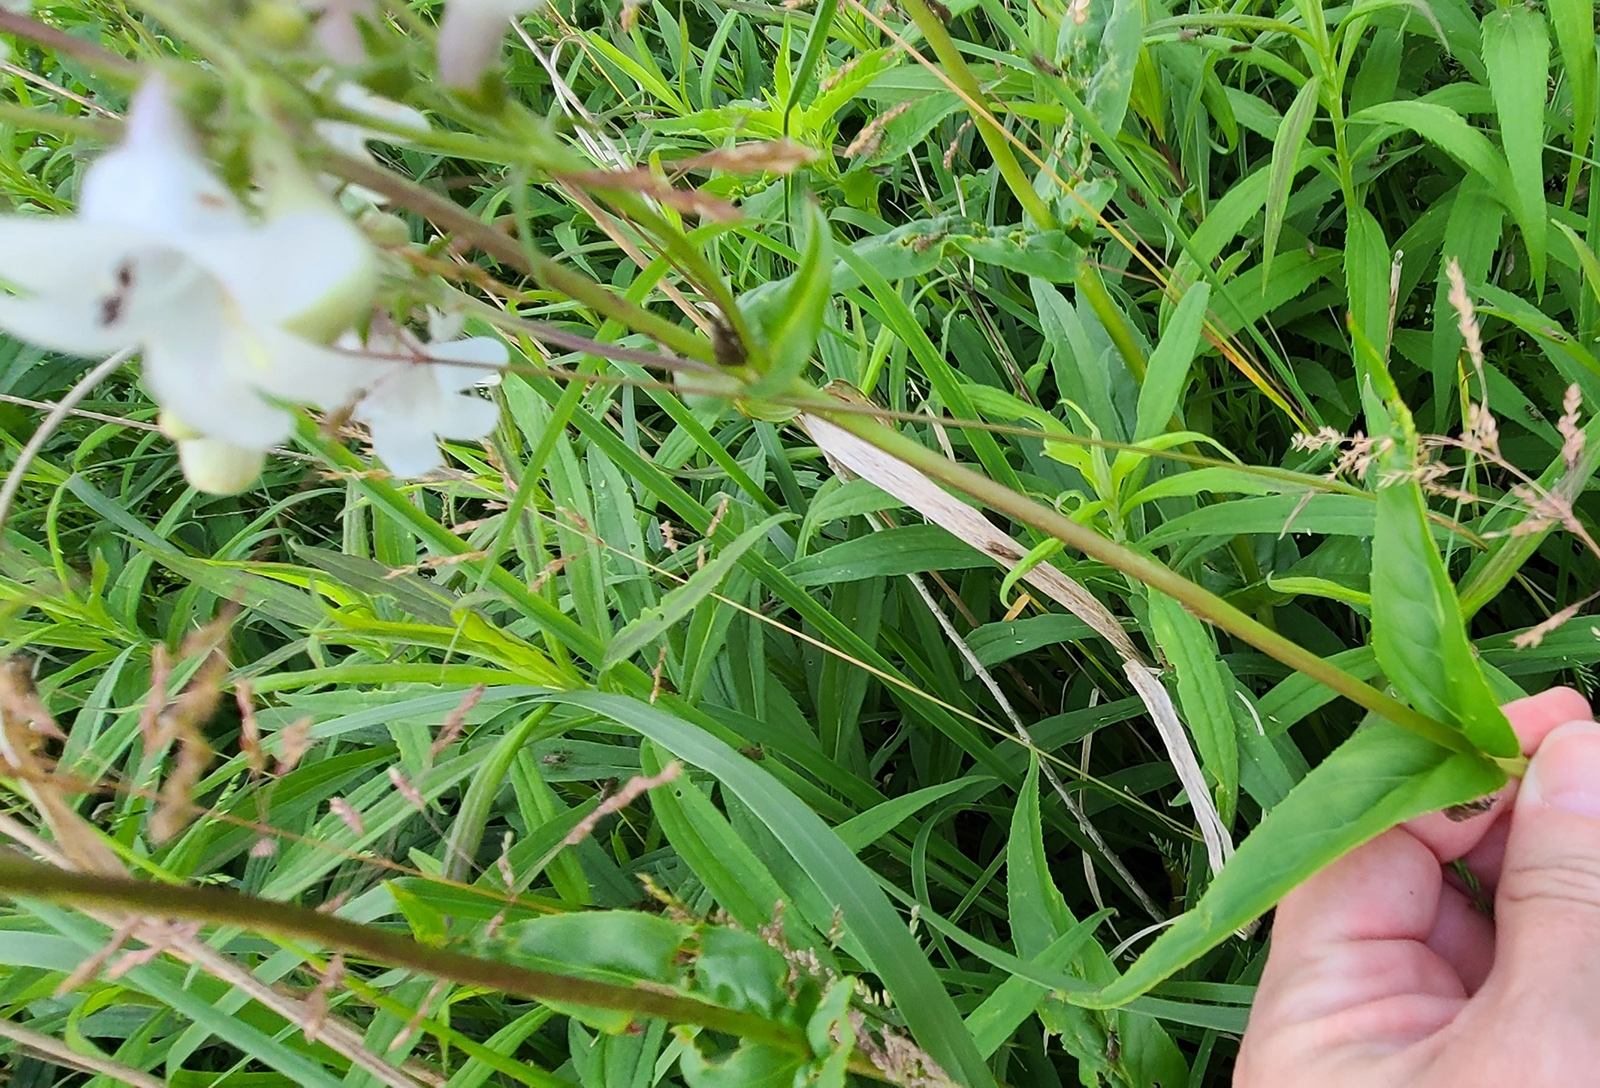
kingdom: Plantae
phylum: Tracheophyta
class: Magnoliopsida
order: Lamiales
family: Plantaginaceae
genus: Penstemon
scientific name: Penstemon digitalis
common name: Foxglove beardtongue
